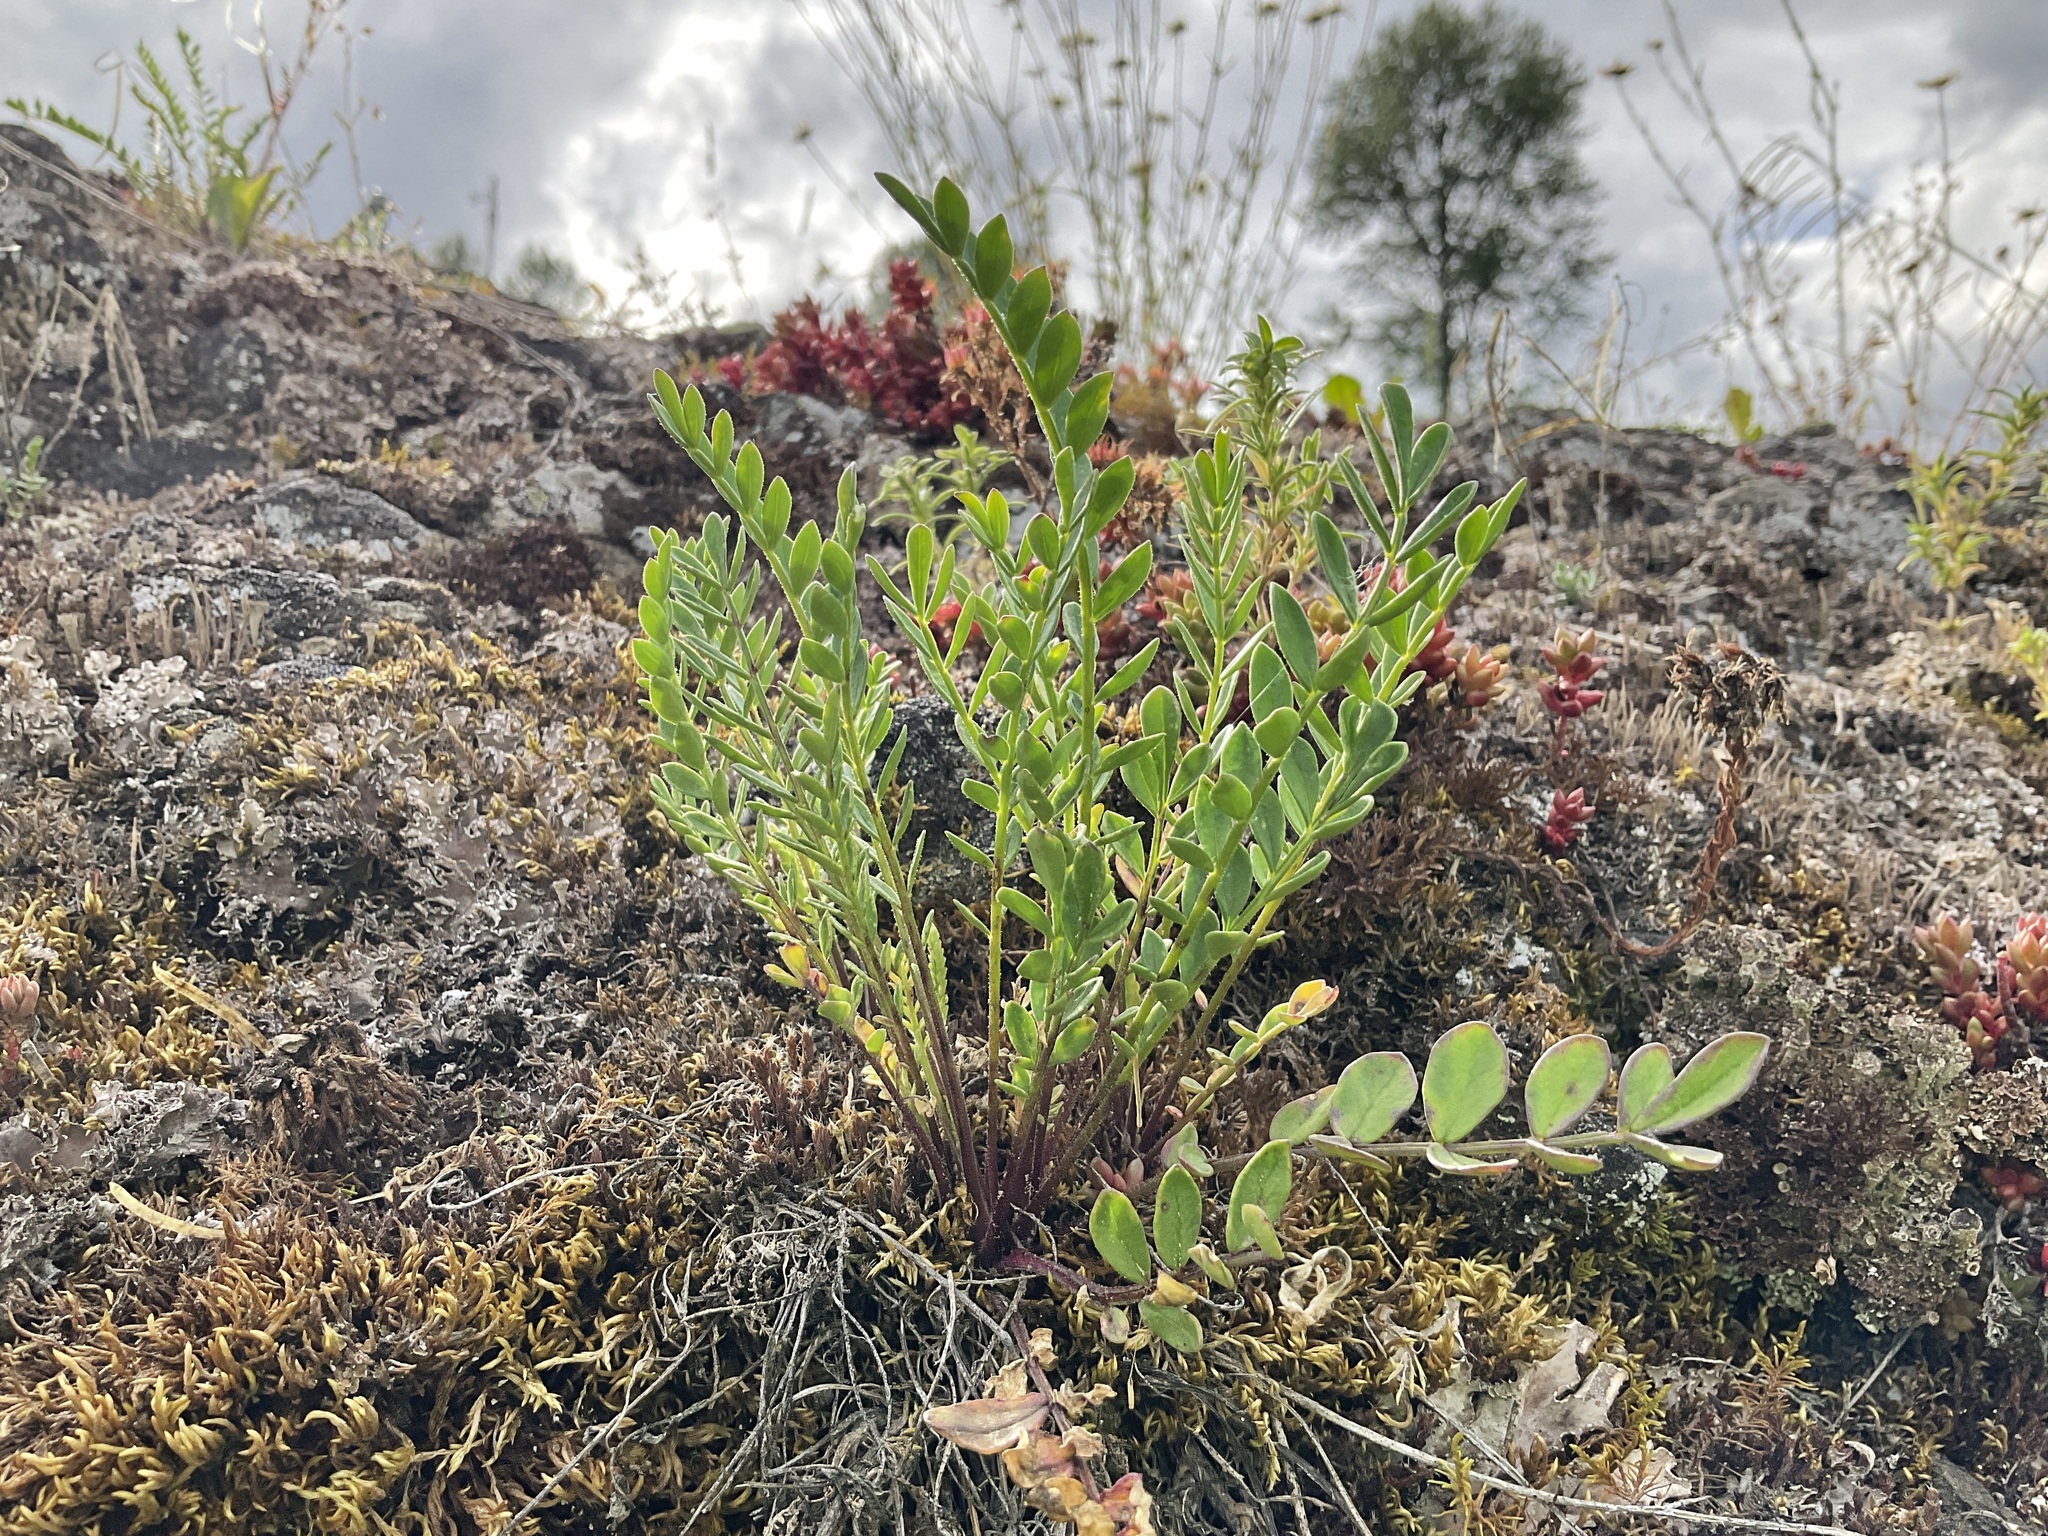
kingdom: Plantae
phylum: Tracheophyta
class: Magnoliopsida
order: Ericales
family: Polemoniaceae
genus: Polemonium
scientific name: Polemonium pulcherrimum
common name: Short jacob's-ladder
